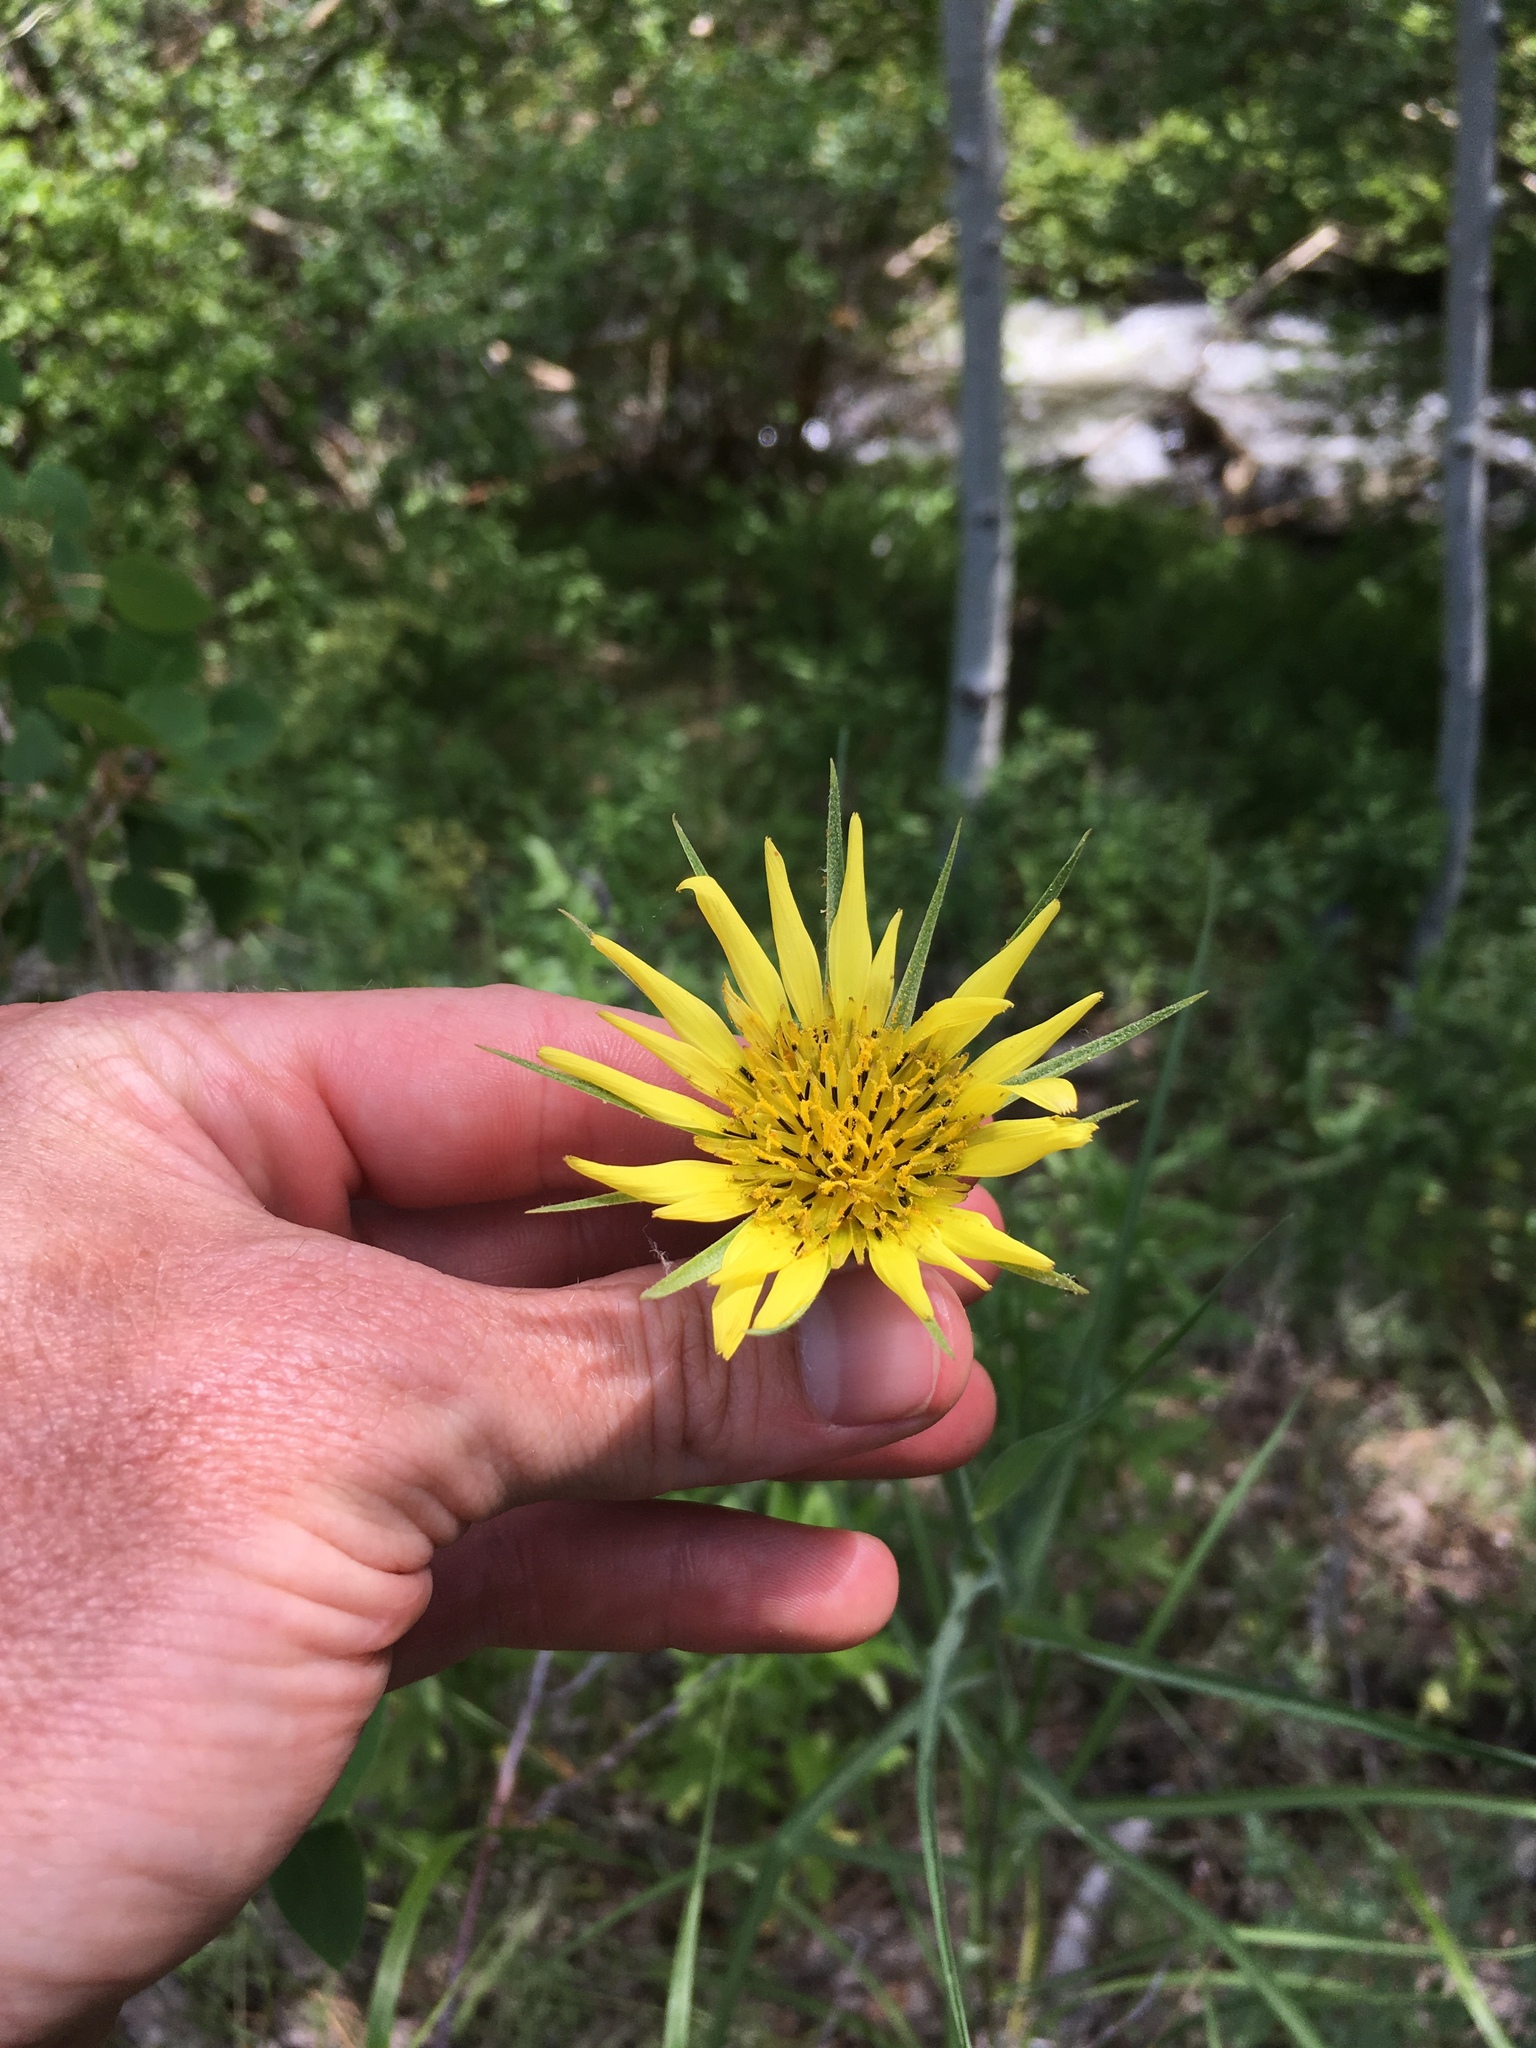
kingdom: Plantae
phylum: Tracheophyta
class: Magnoliopsida
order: Asterales
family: Asteraceae
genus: Tragopogon
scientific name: Tragopogon dubius
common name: Yellow salsify
